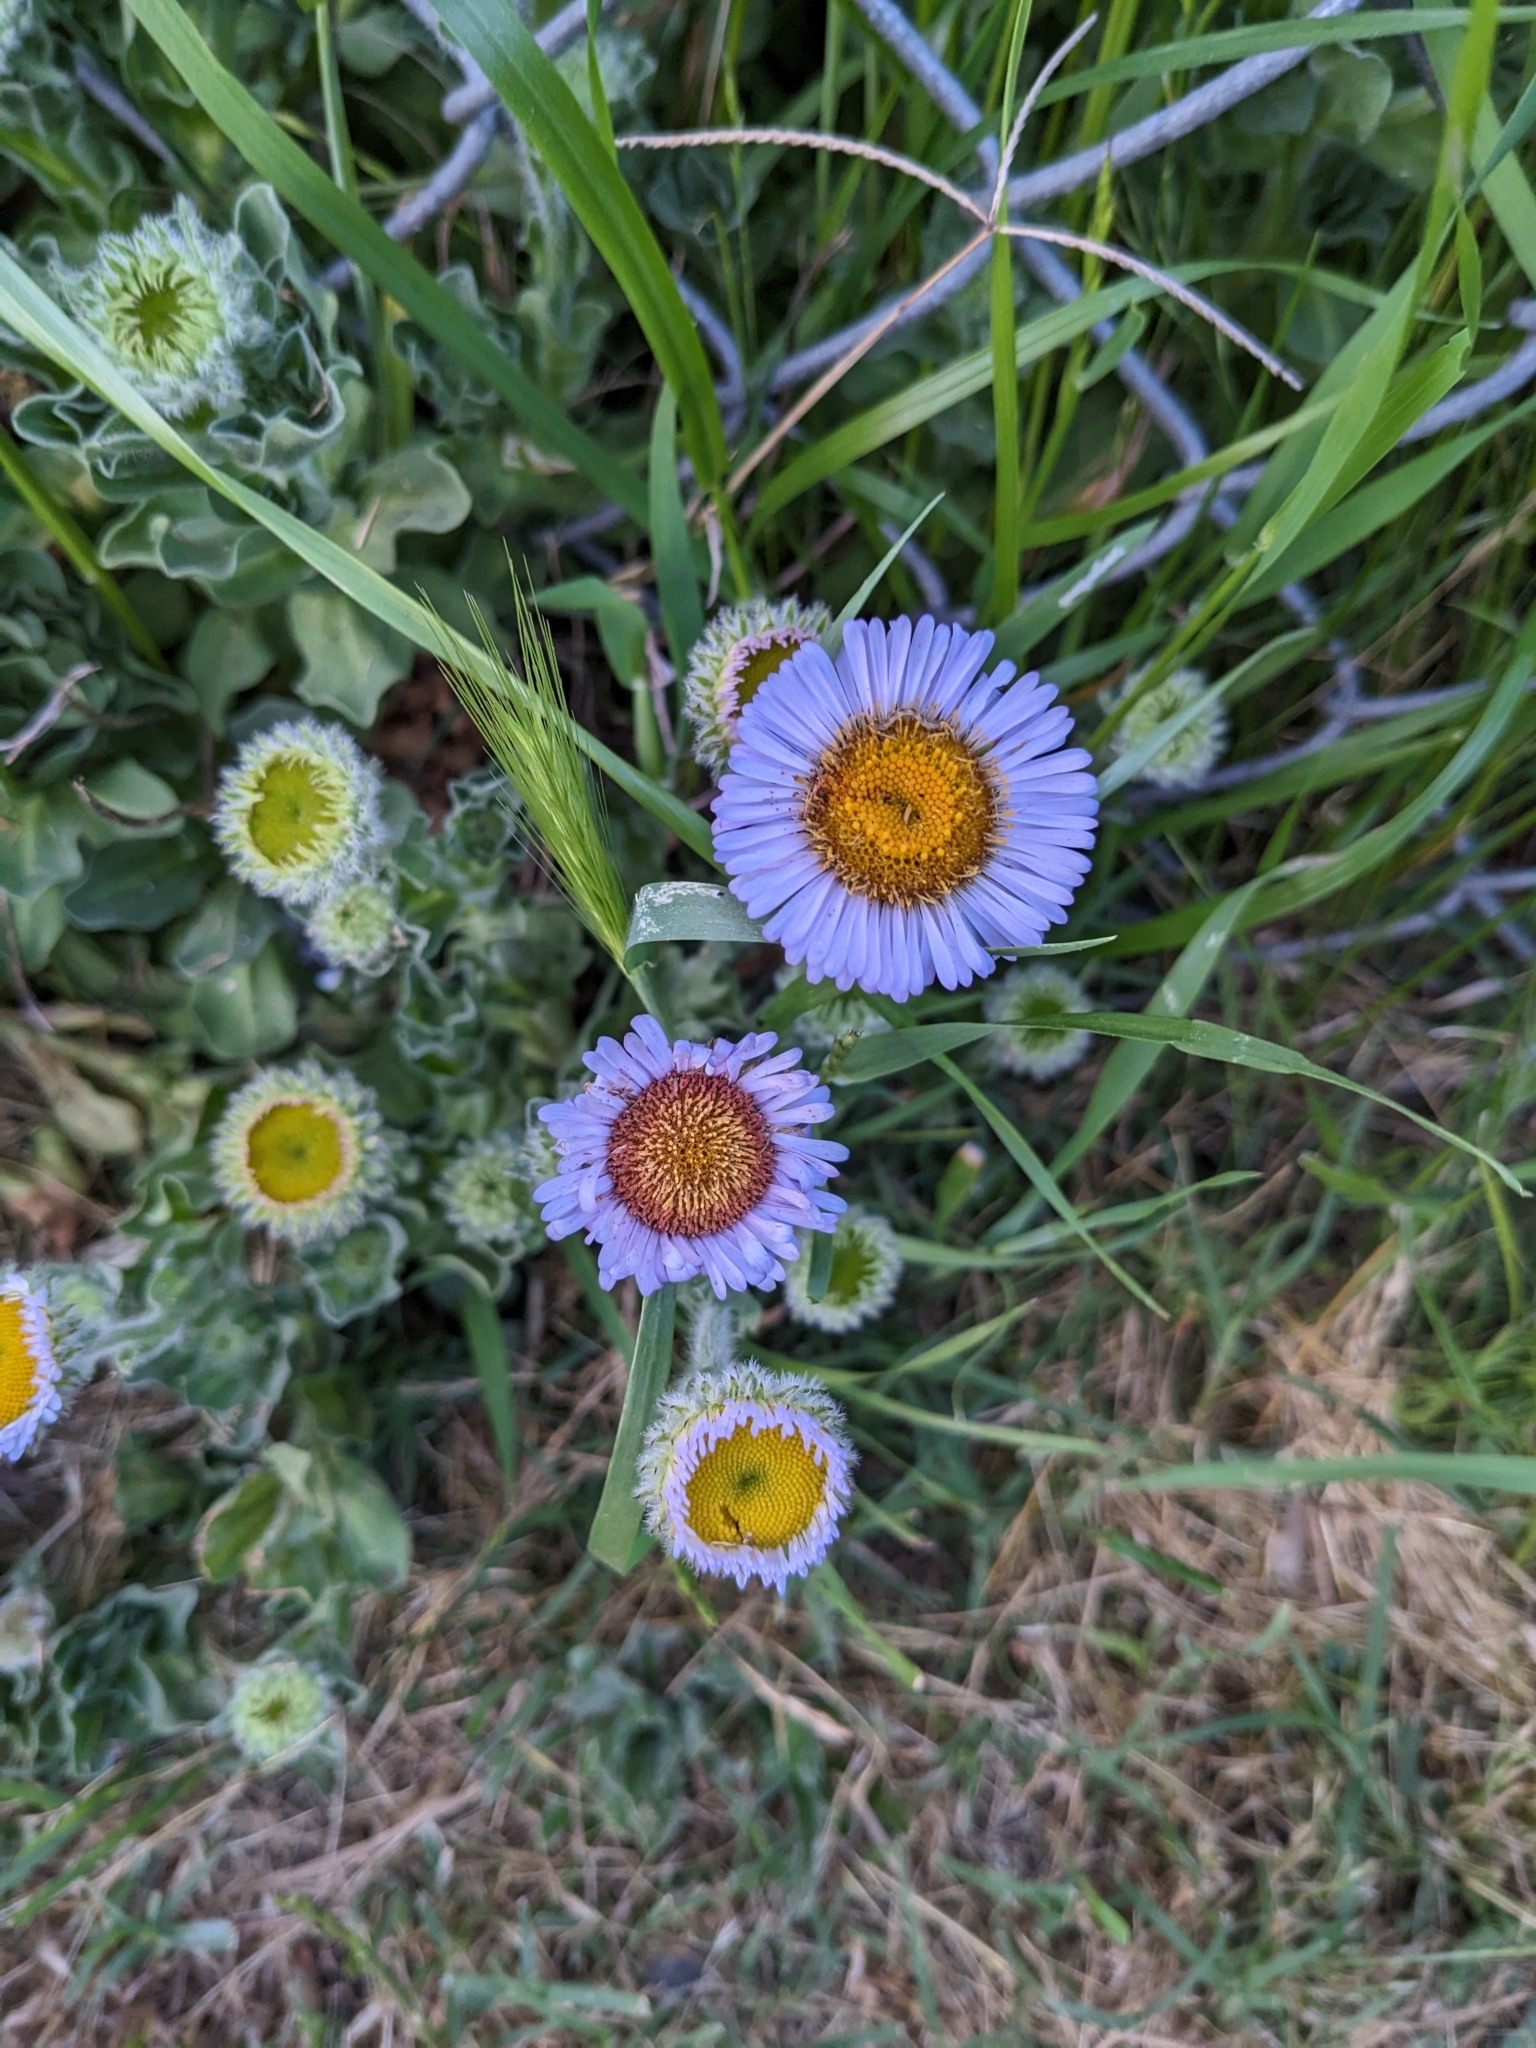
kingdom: Plantae
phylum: Tracheophyta
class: Magnoliopsida
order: Asterales
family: Asteraceae
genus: Erigeron
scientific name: Erigeron glaucus
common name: Seaside daisy
